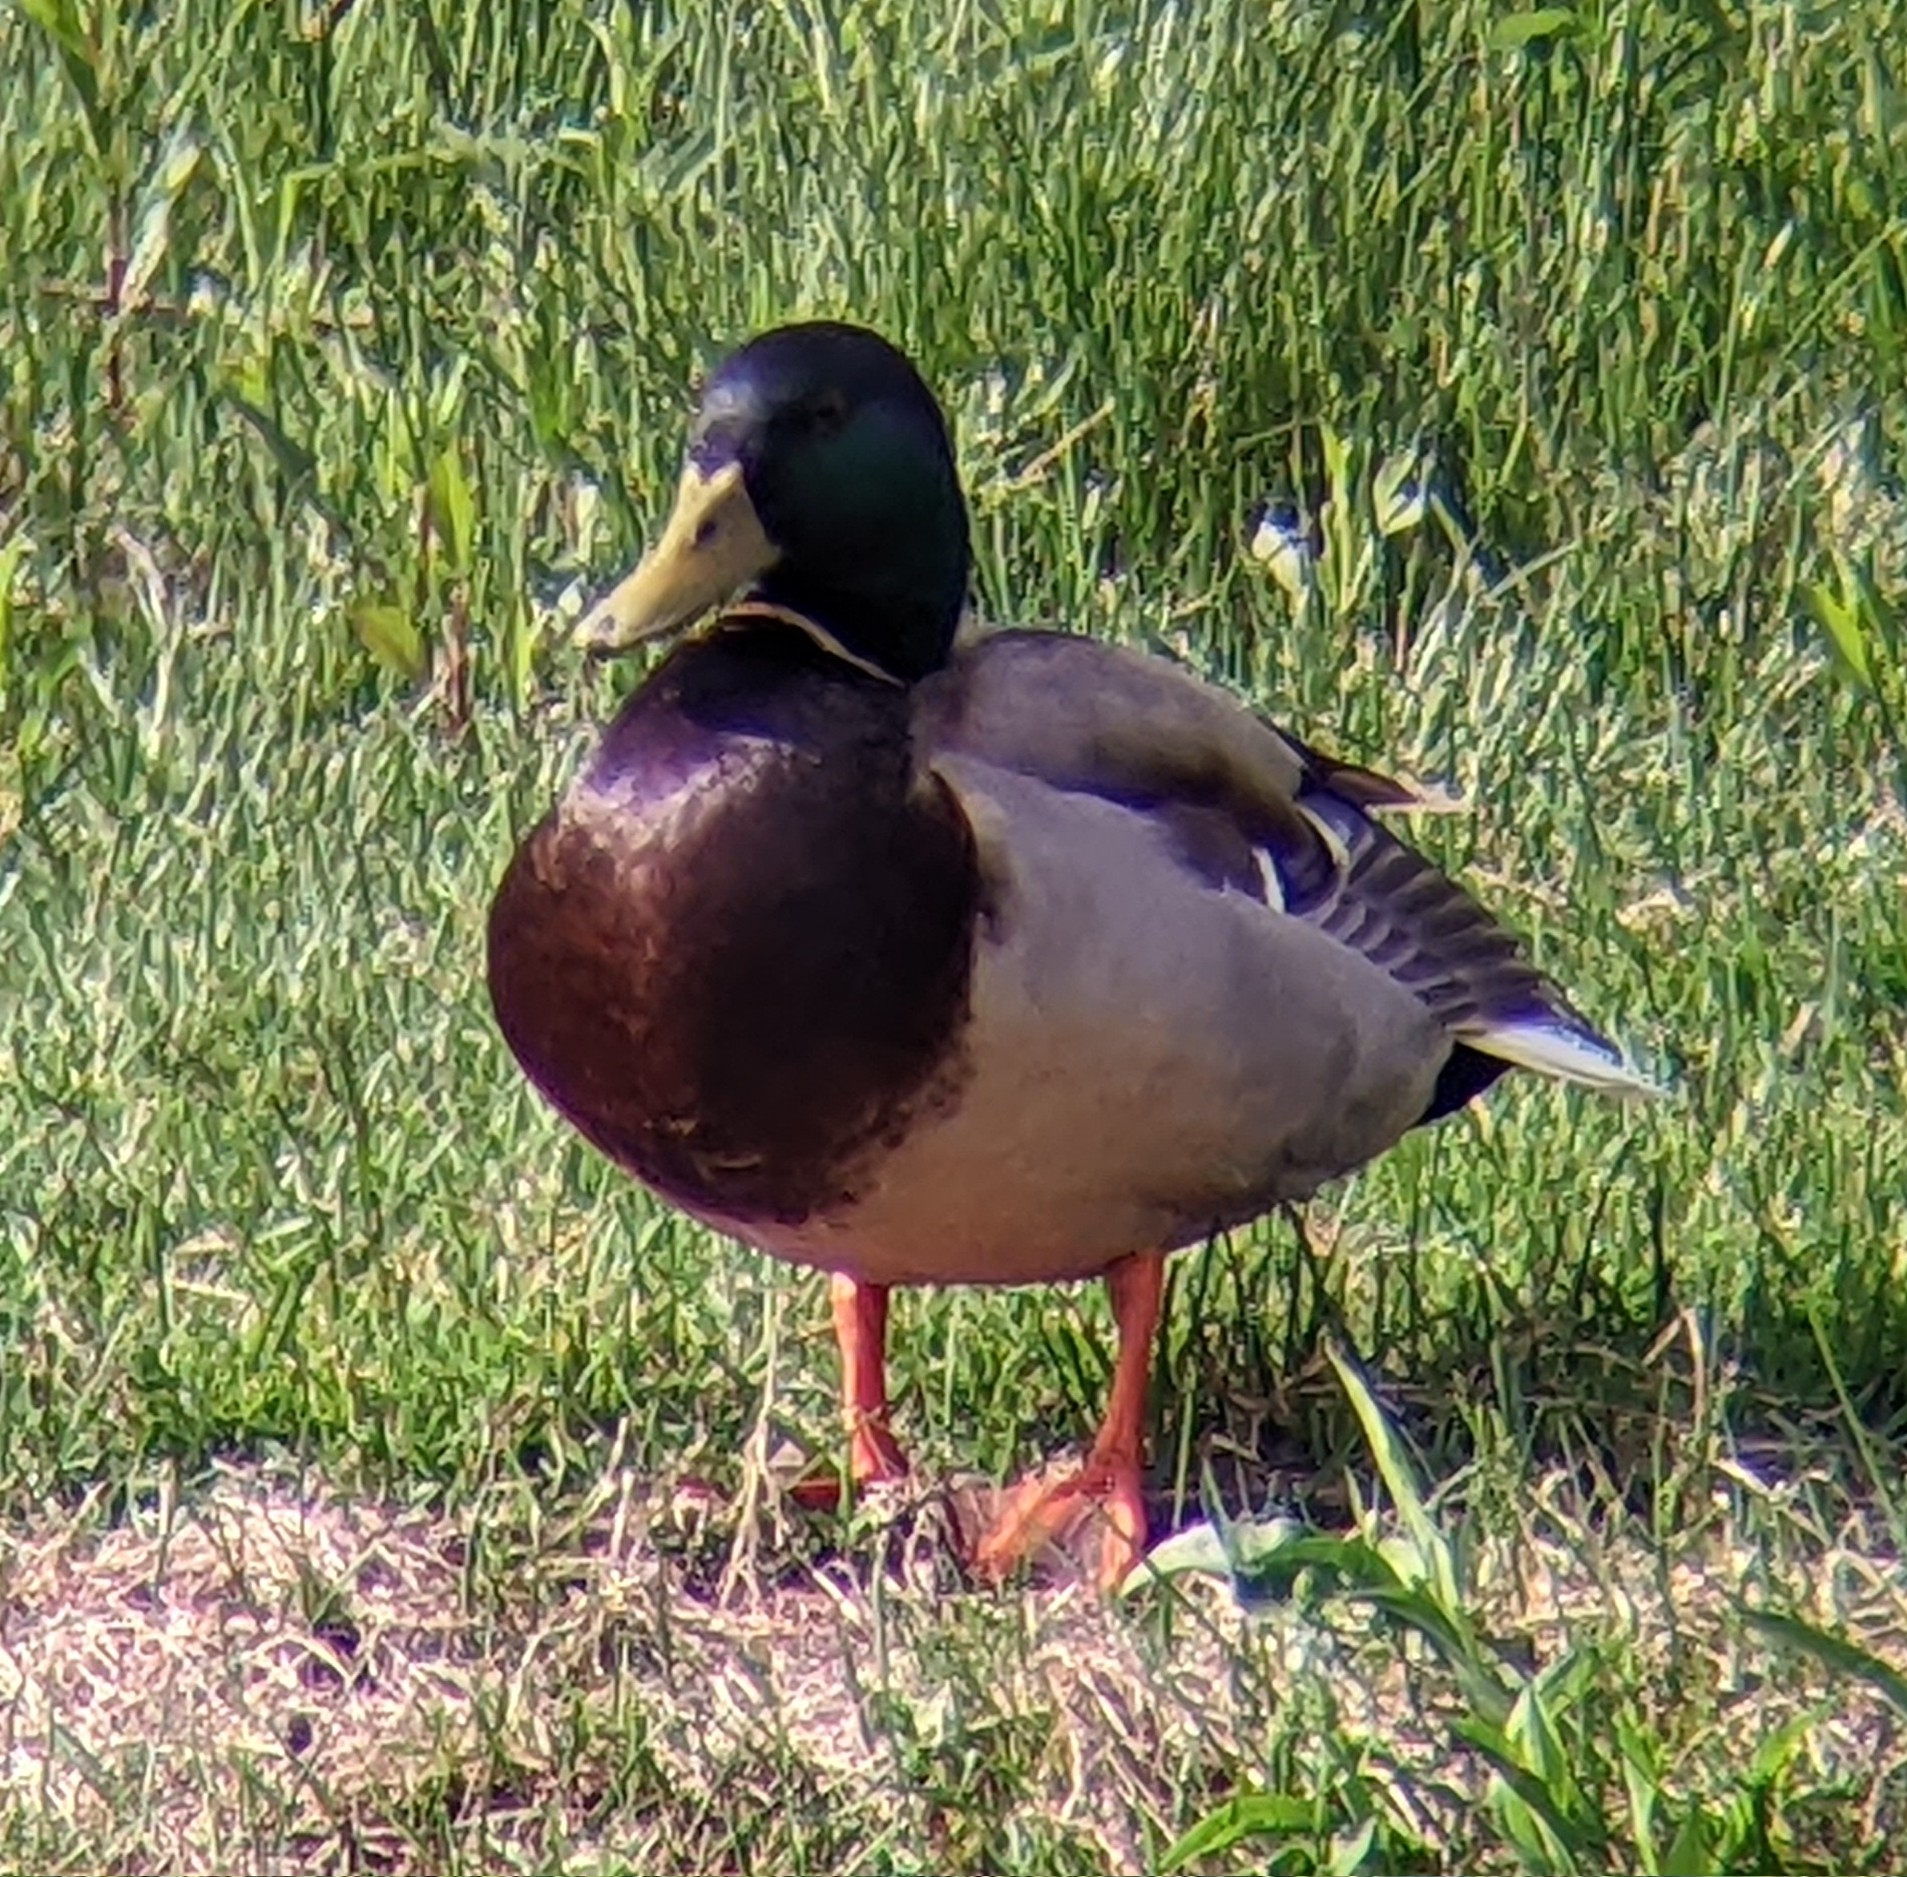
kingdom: Animalia
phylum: Chordata
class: Aves
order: Anseriformes
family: Anatidae
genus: Anas
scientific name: Anas platyrhynchos
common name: Mallard
